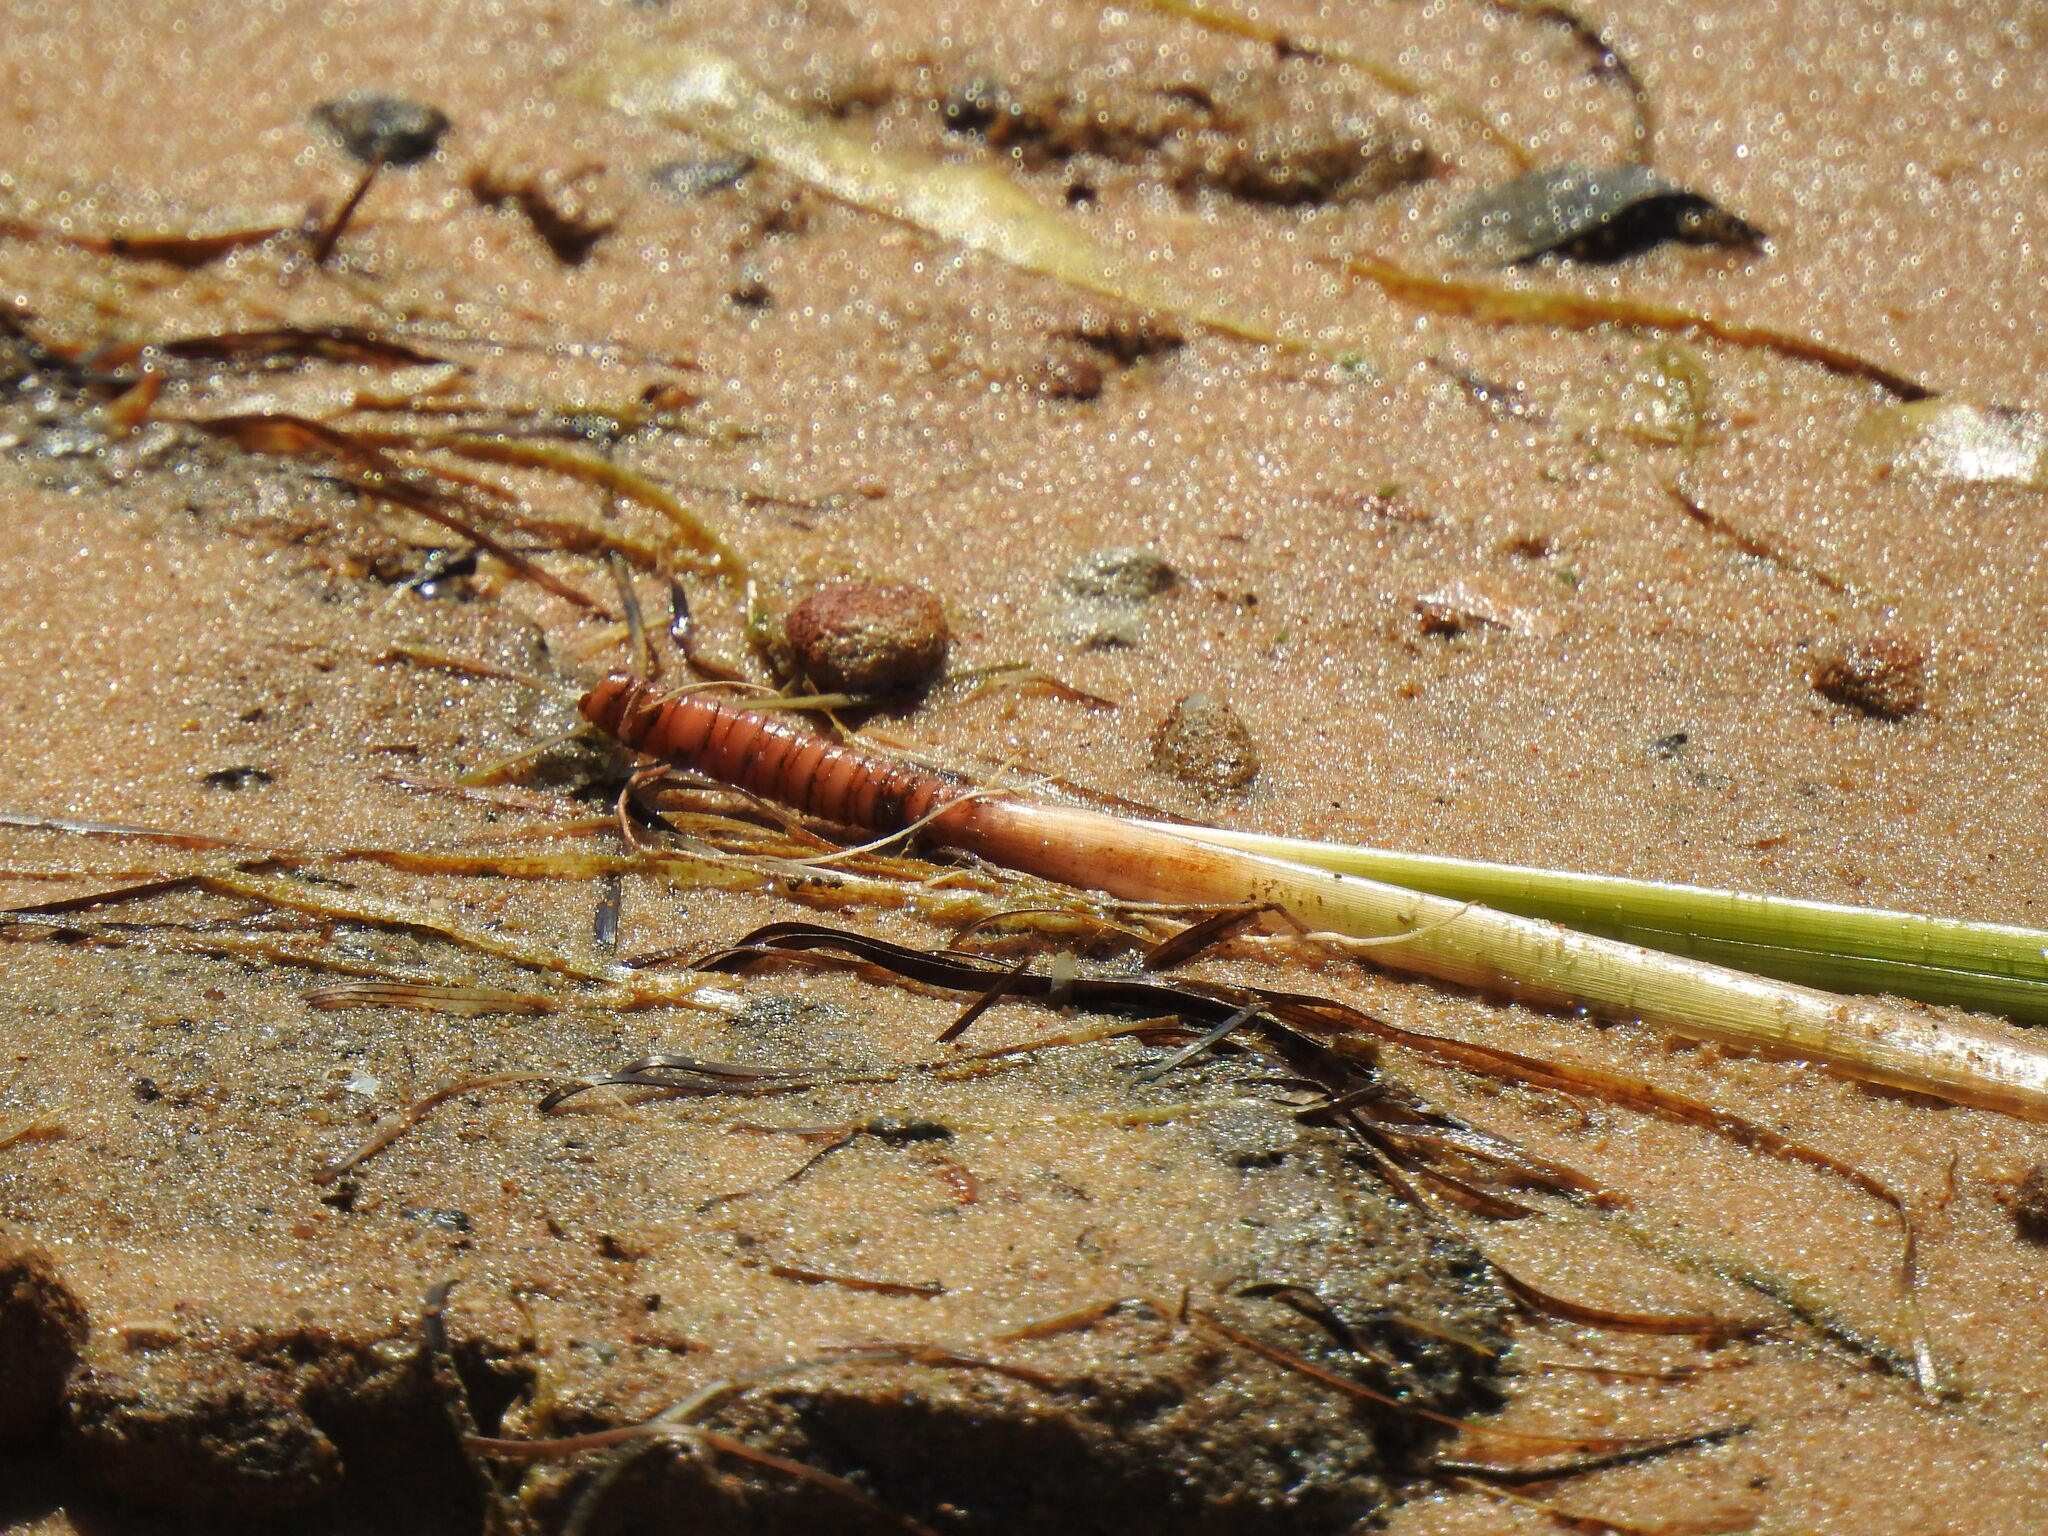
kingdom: Plantae
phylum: Tracheophyta
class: Liliopsida
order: Alismatales
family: Cymodoceaceae
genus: Cymodocea
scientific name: Cymodocea nodosa
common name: Slender seagrass
